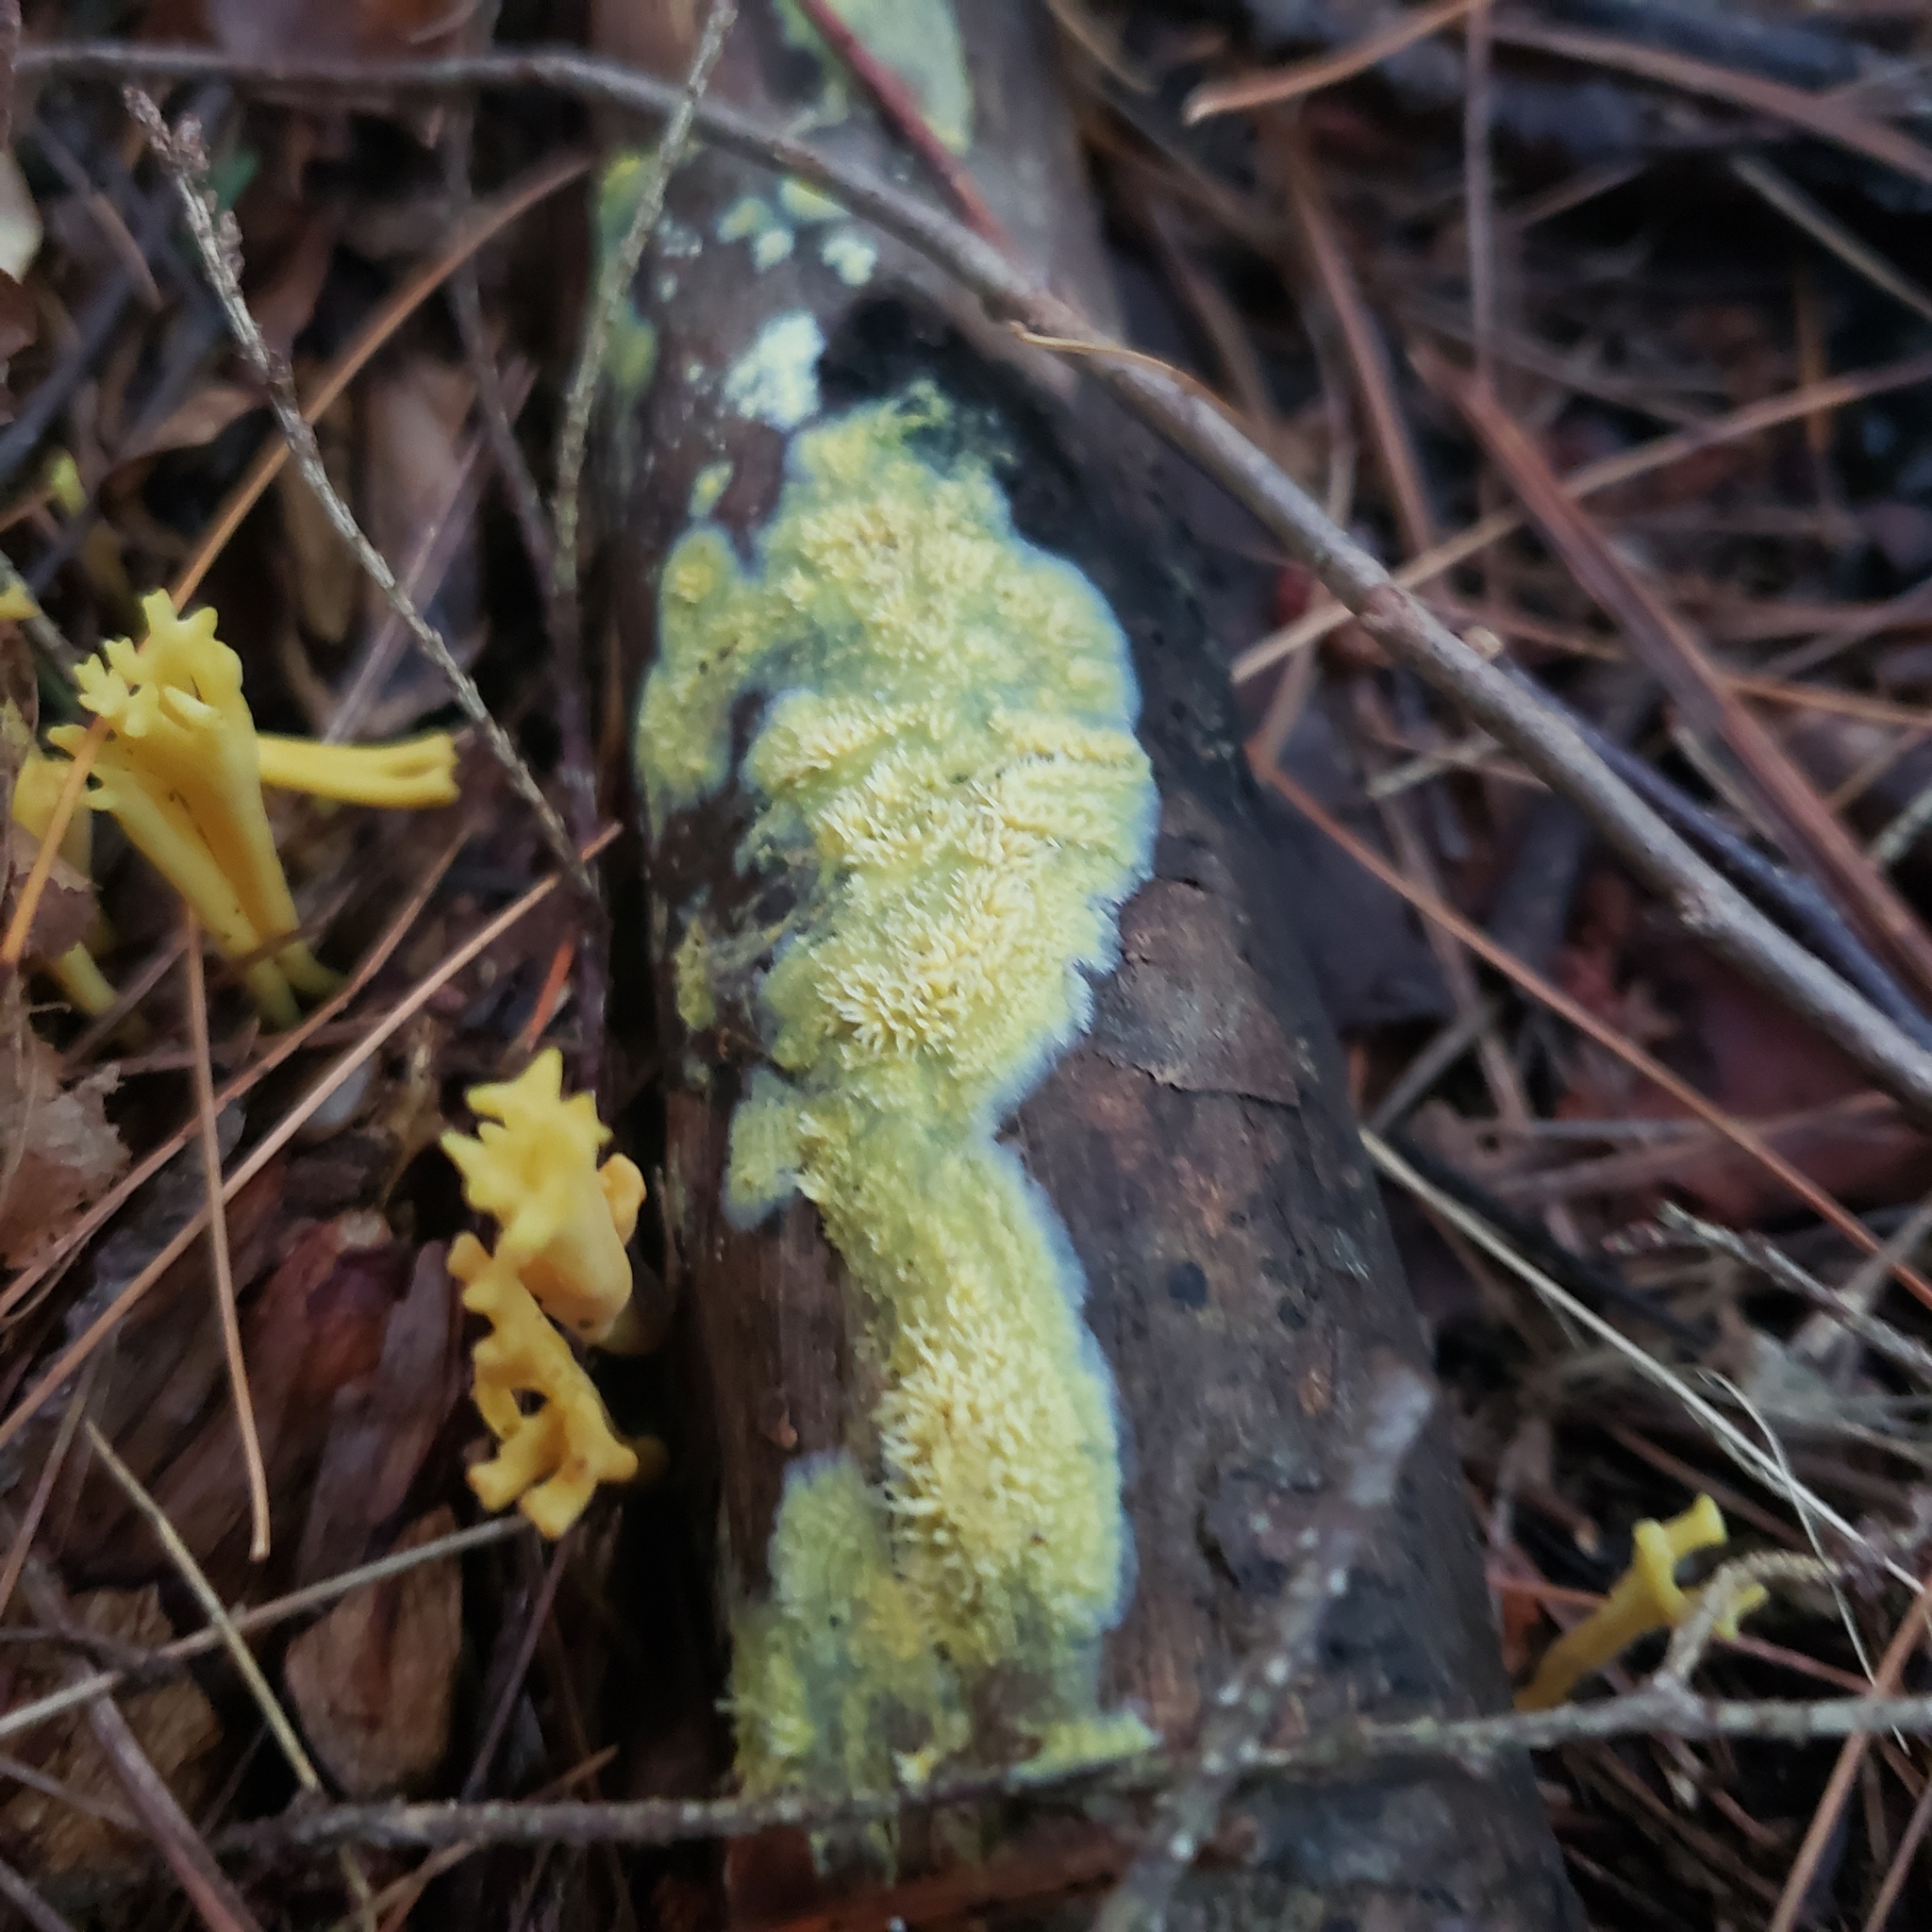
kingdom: Fungi
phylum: Basidiomycota
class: Agaricomycetes
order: Polyporales
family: Meruliaceae
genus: Mycoacia
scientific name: Mycoacia uda
